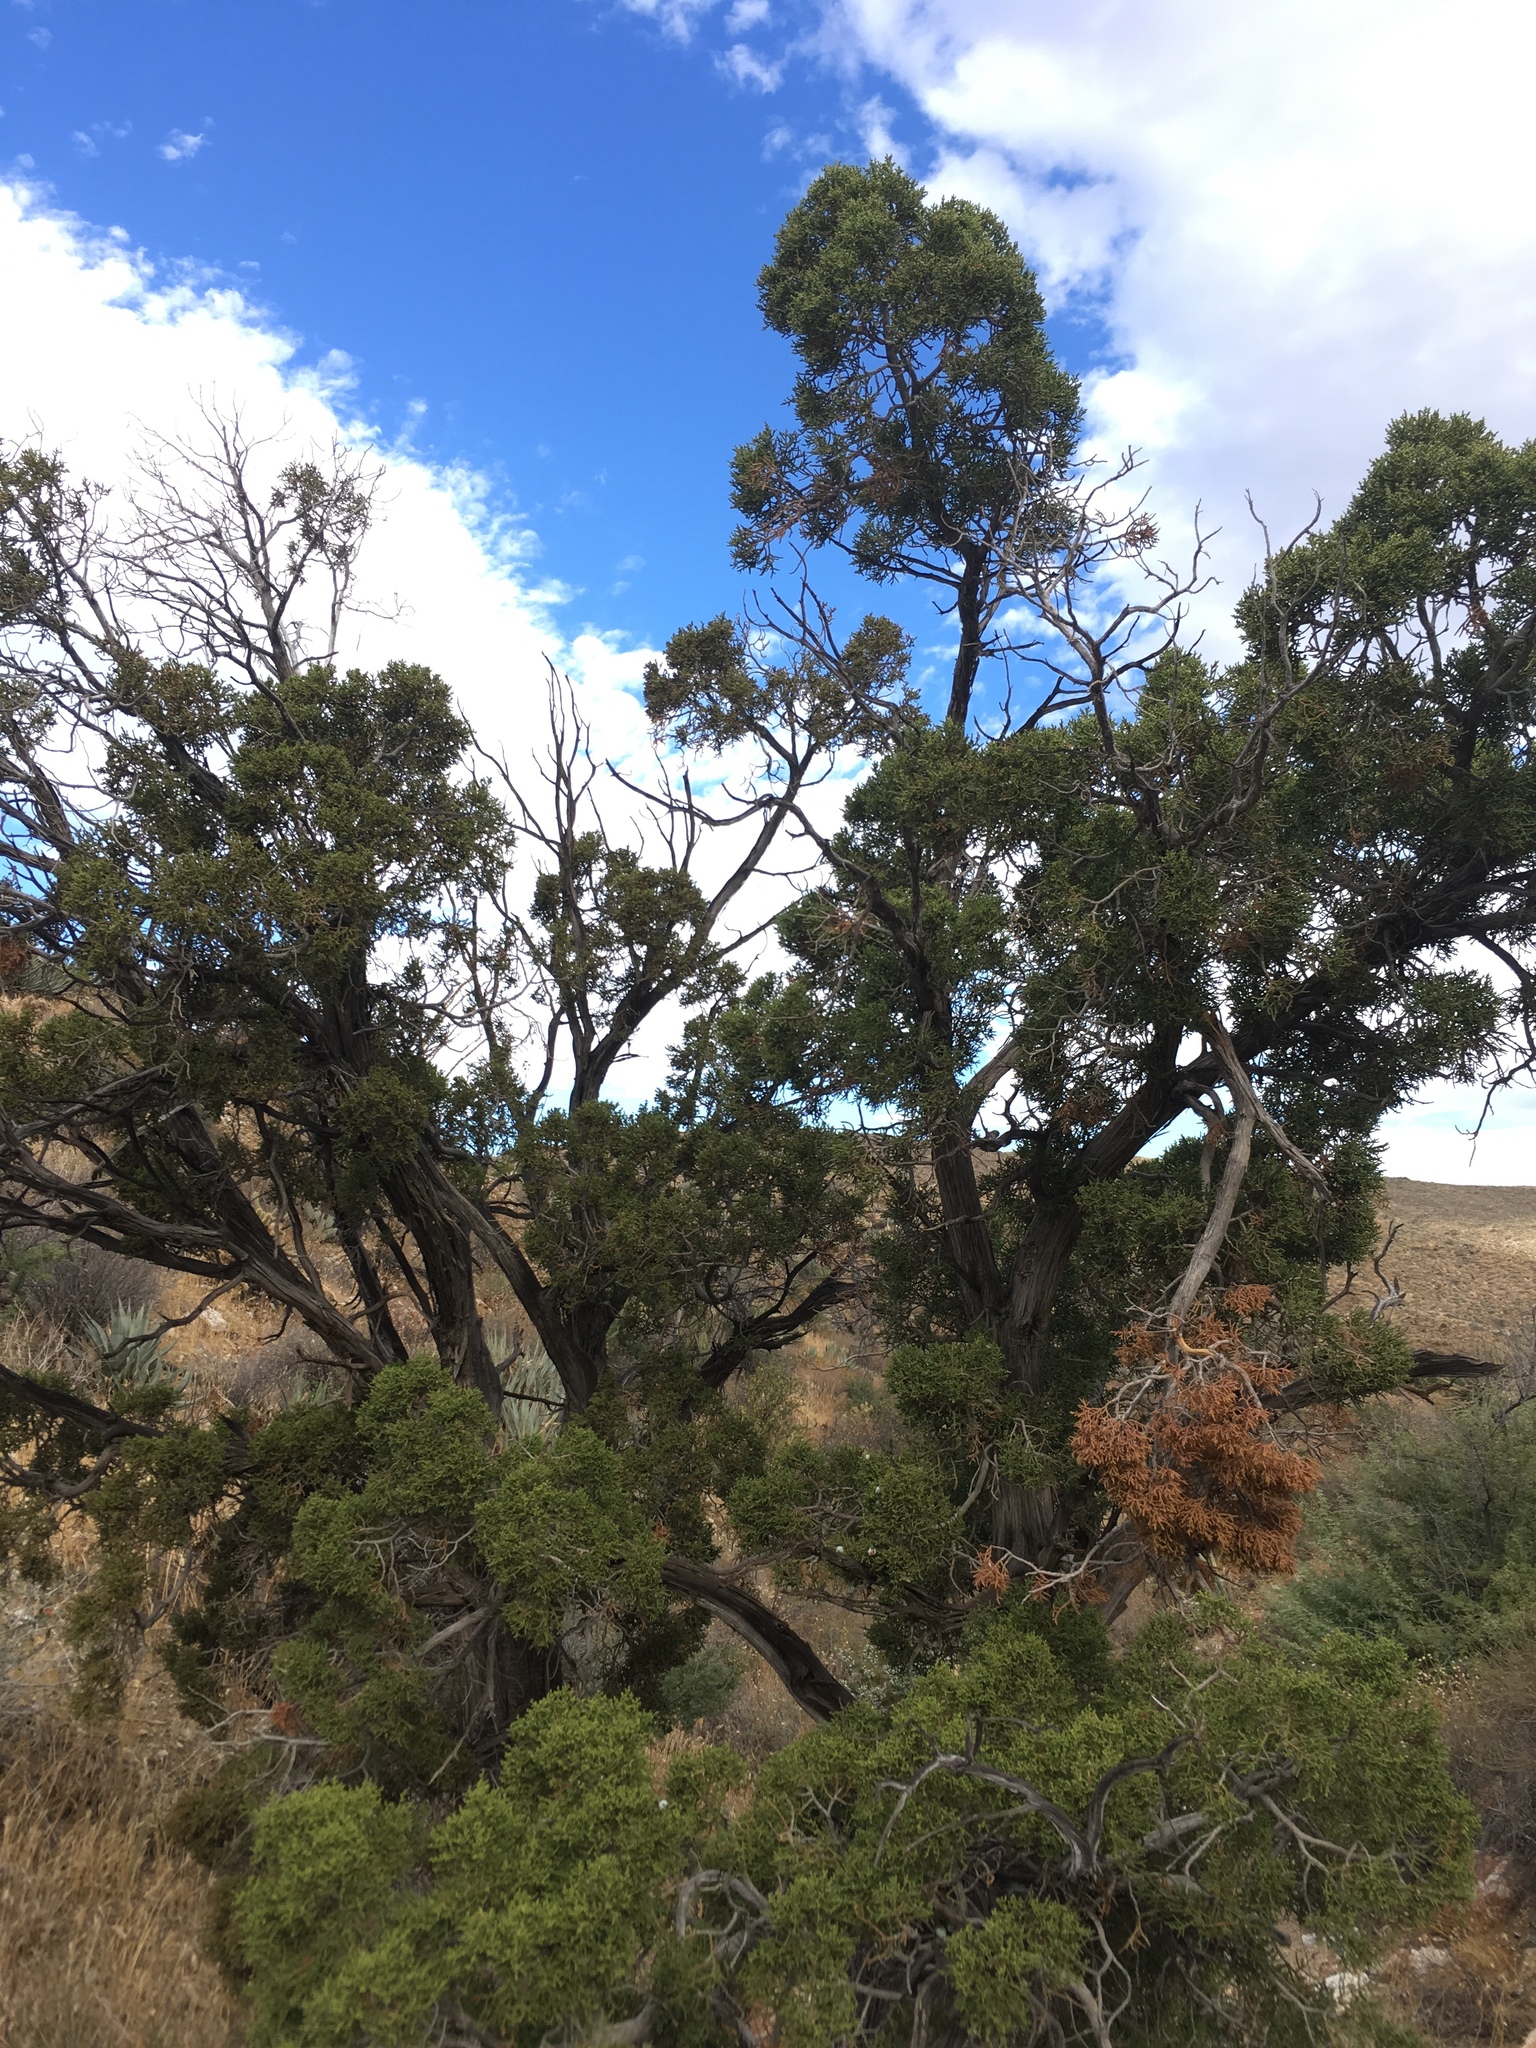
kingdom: Plantae
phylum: Tracheophyta
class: Pinopsida
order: Pinales
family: Cupressaceae
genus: Juniperus
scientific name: Juniperus californica
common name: California juniper
